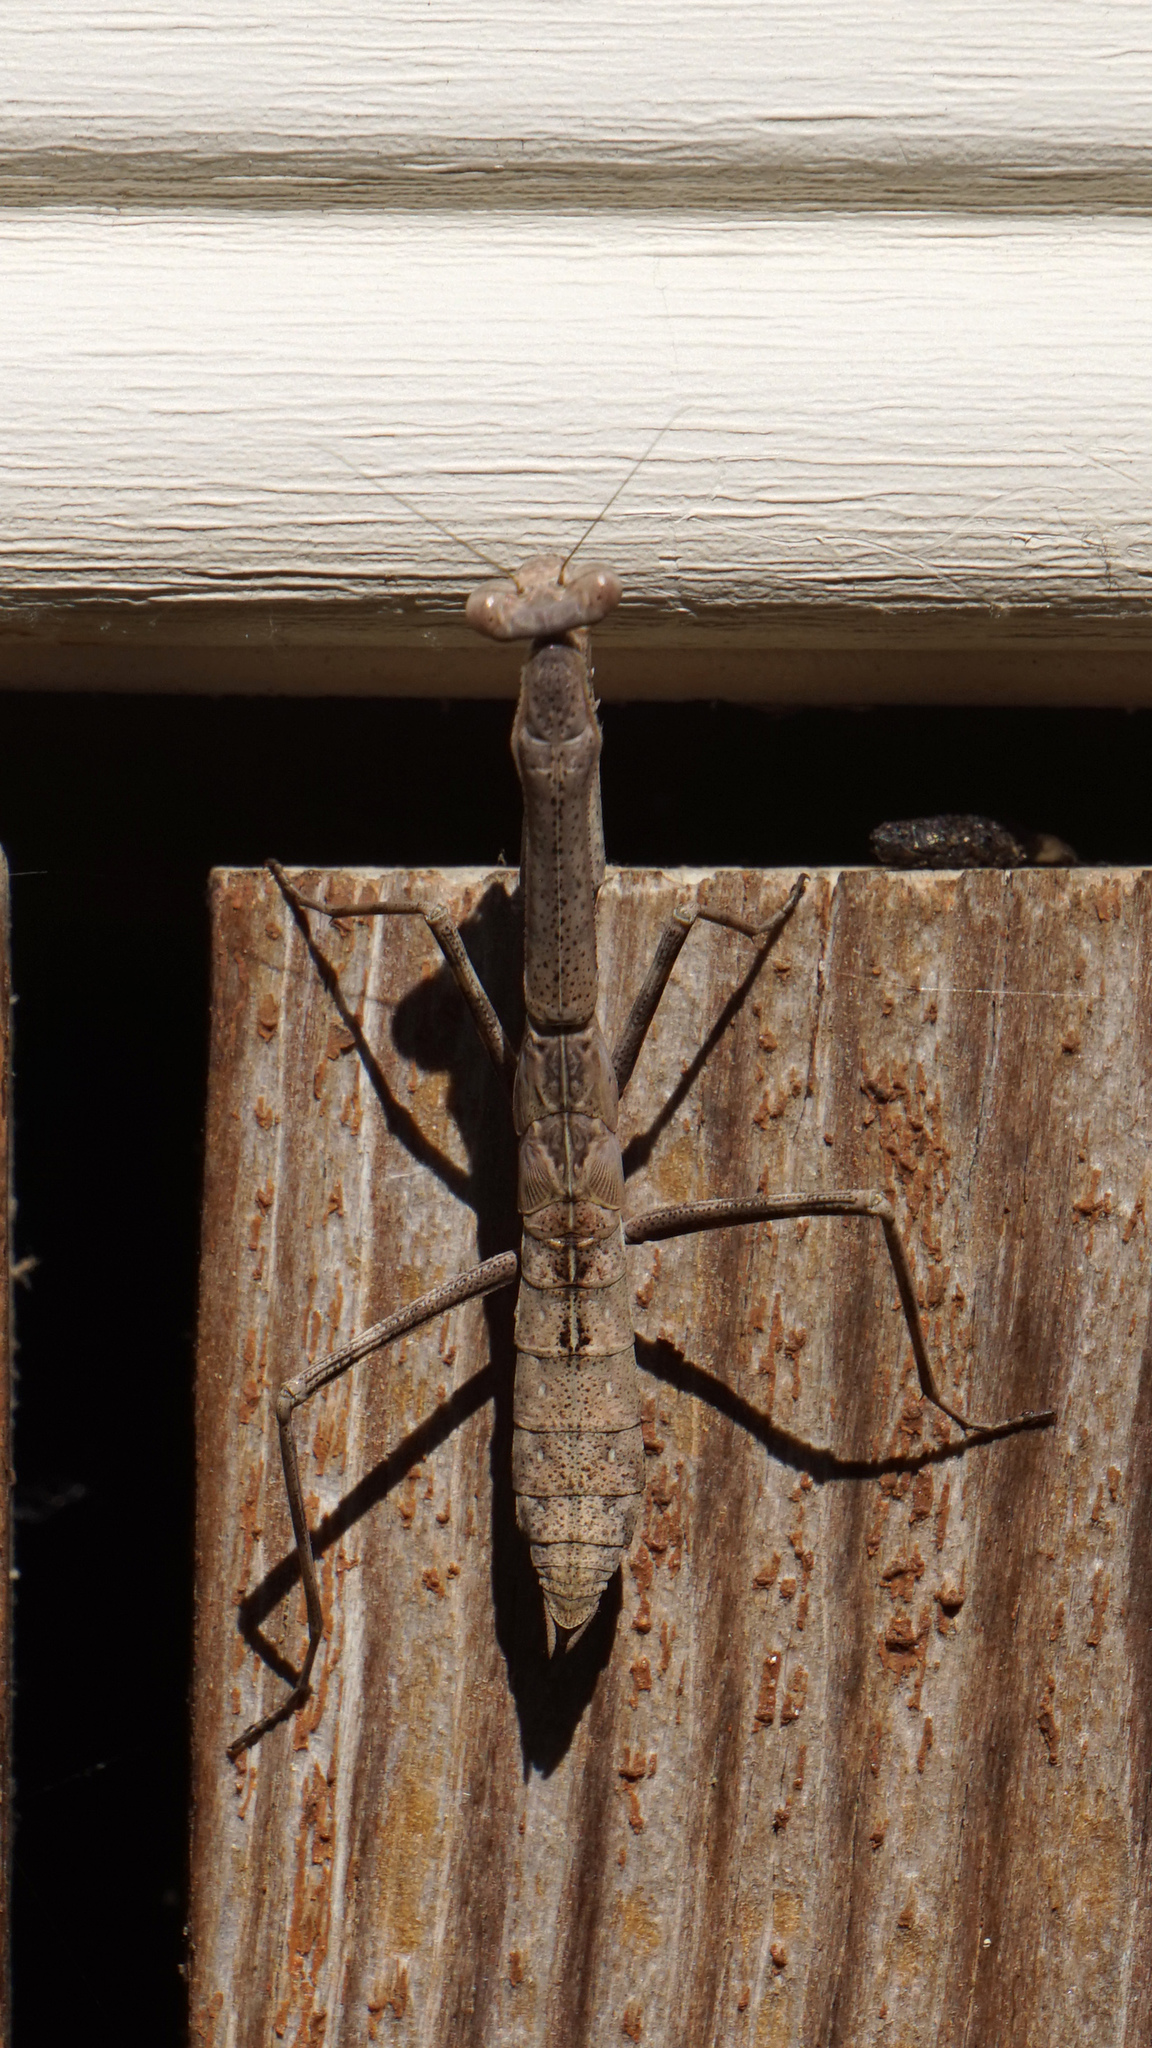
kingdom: Animalia
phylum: Arthropoda
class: Insecta
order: Mantodea
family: Mantidae
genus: Stagmomantis
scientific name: Stagmomantis carolina
